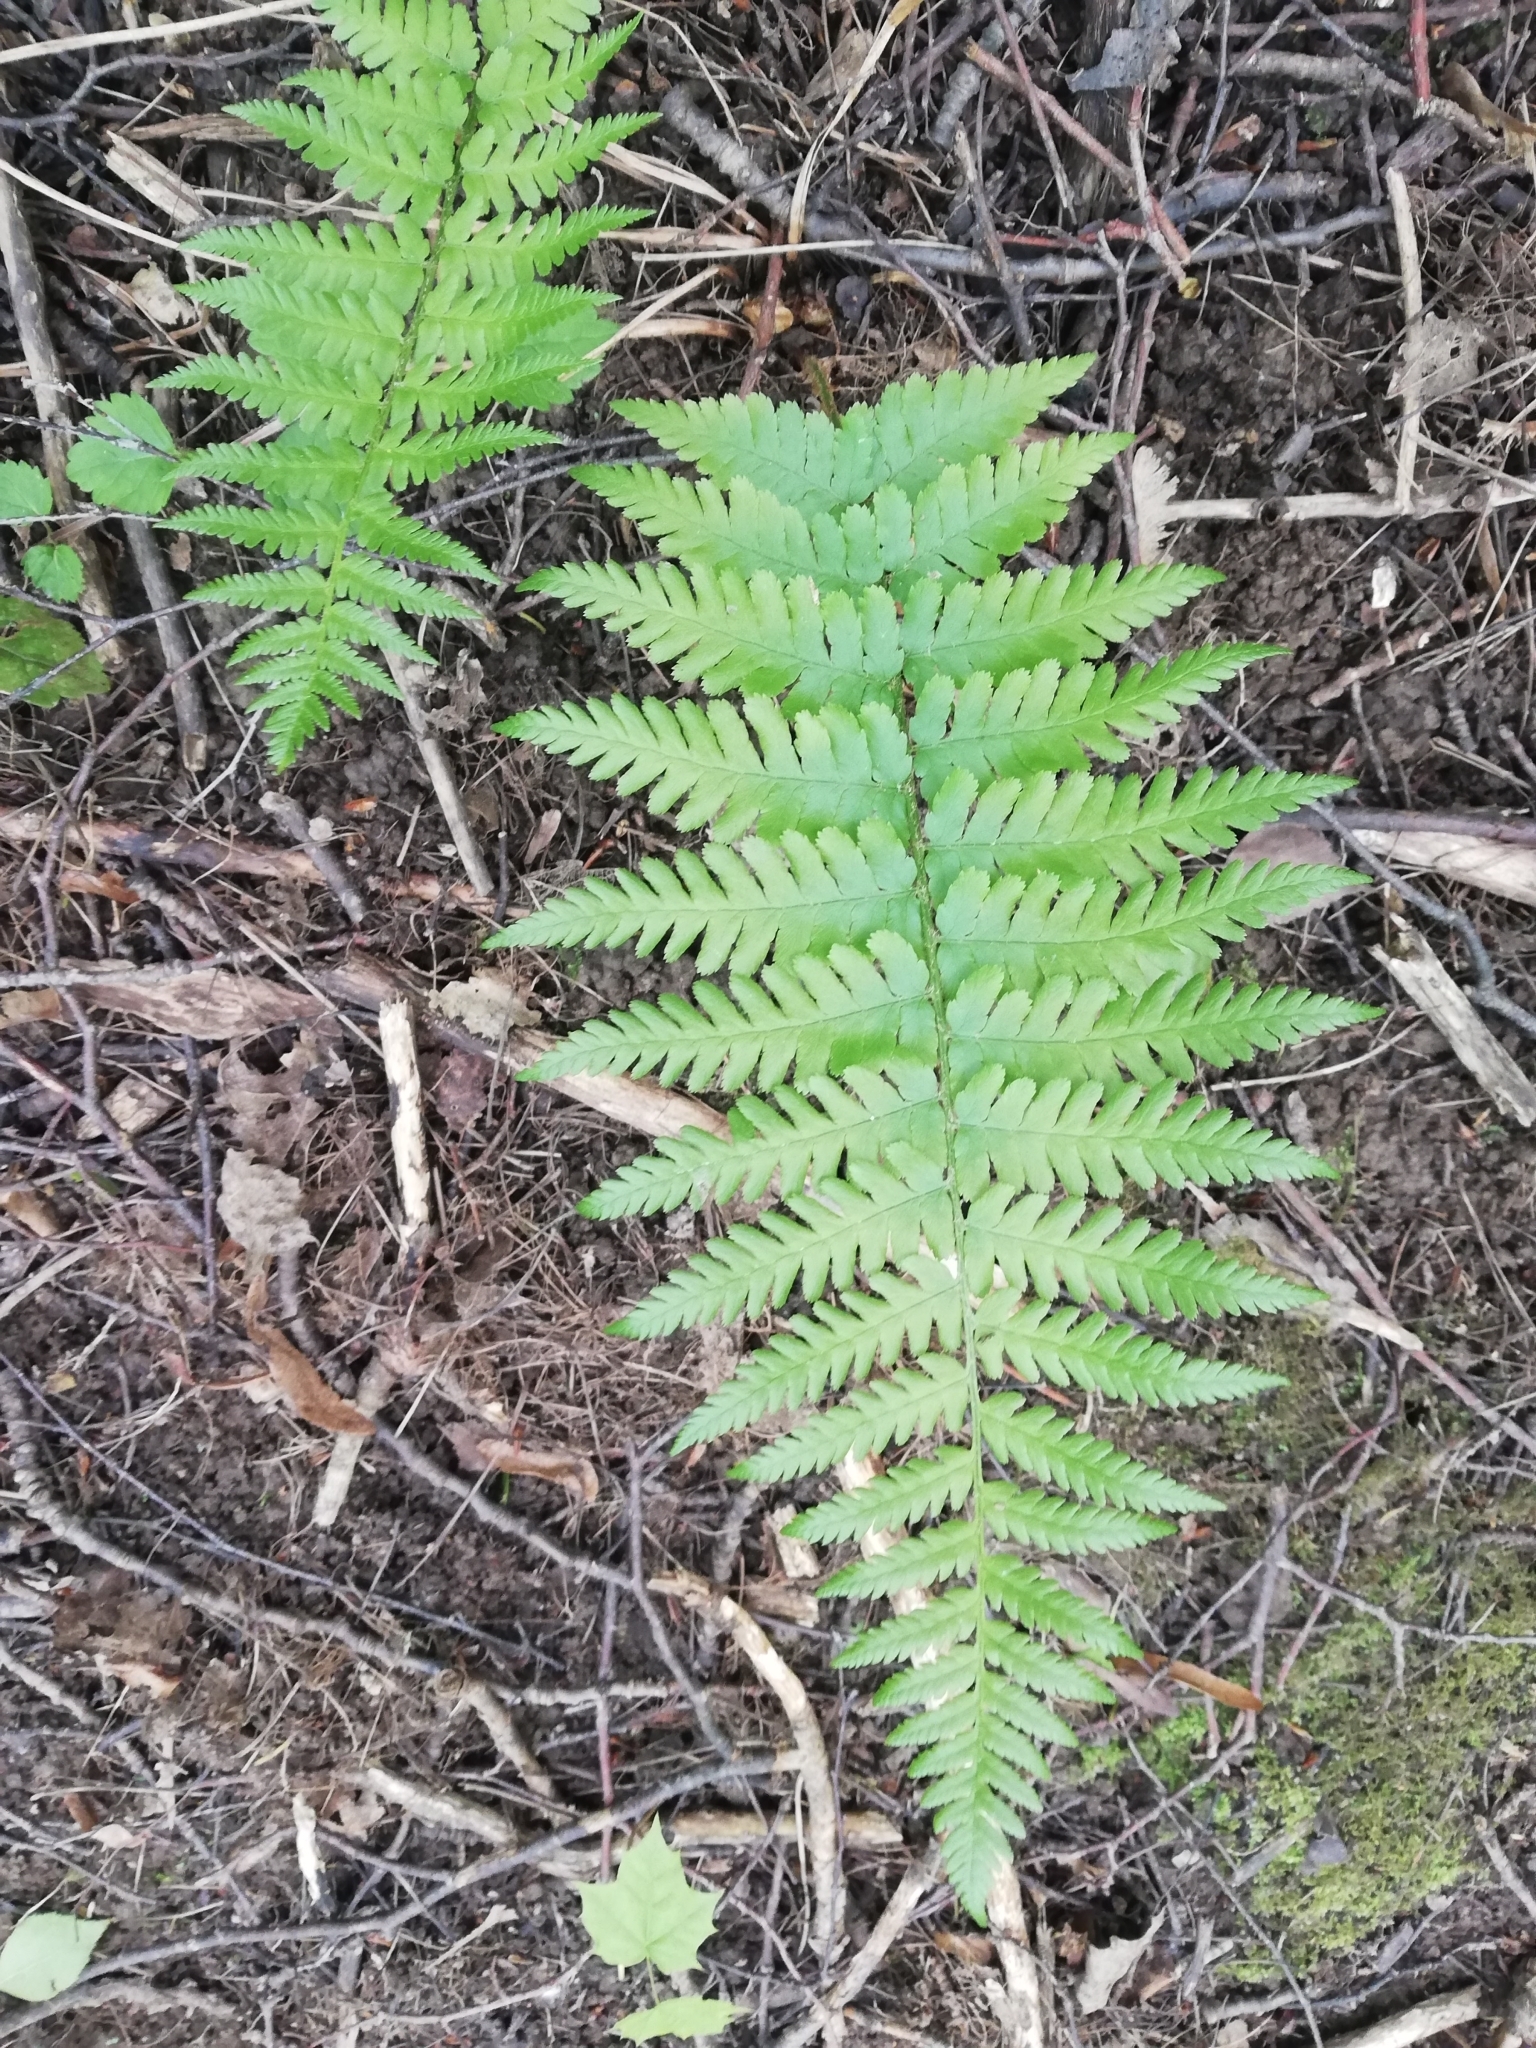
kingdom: Plantae
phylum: Tracheophyta
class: Polypodiopsida
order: Polypodiales
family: Dryopteridaceae
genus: Dryopteris
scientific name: Dryopteris filix-mas
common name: Male fern
